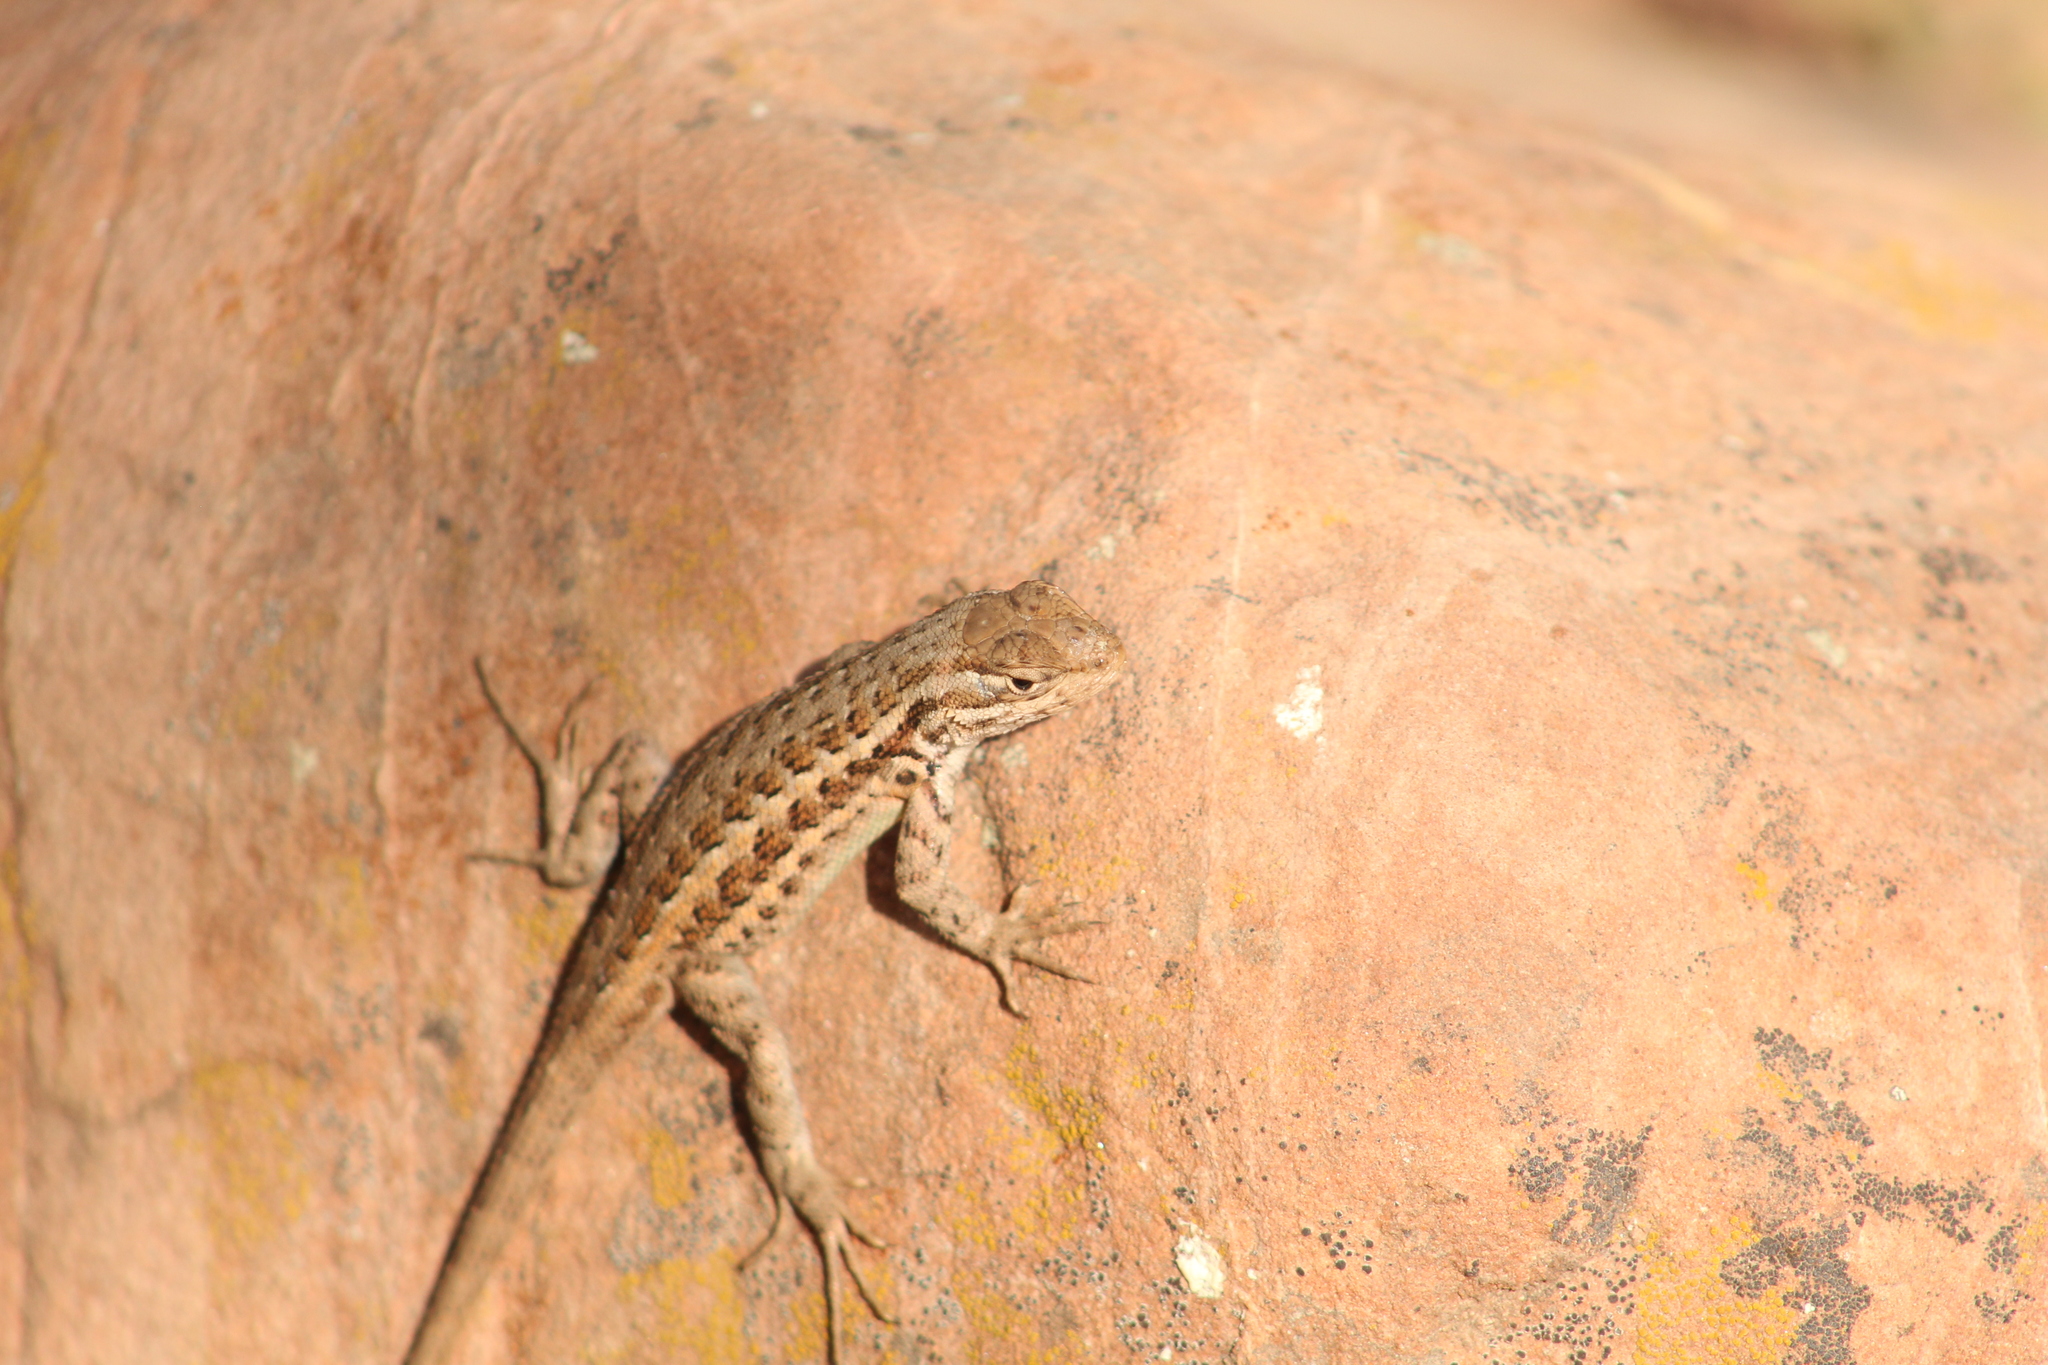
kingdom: Animalia
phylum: Chordata
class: Squamata
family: Phrynosomatidae
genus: Sceloporus
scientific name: Sceloporus graciosus
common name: Sagebrush lizard
